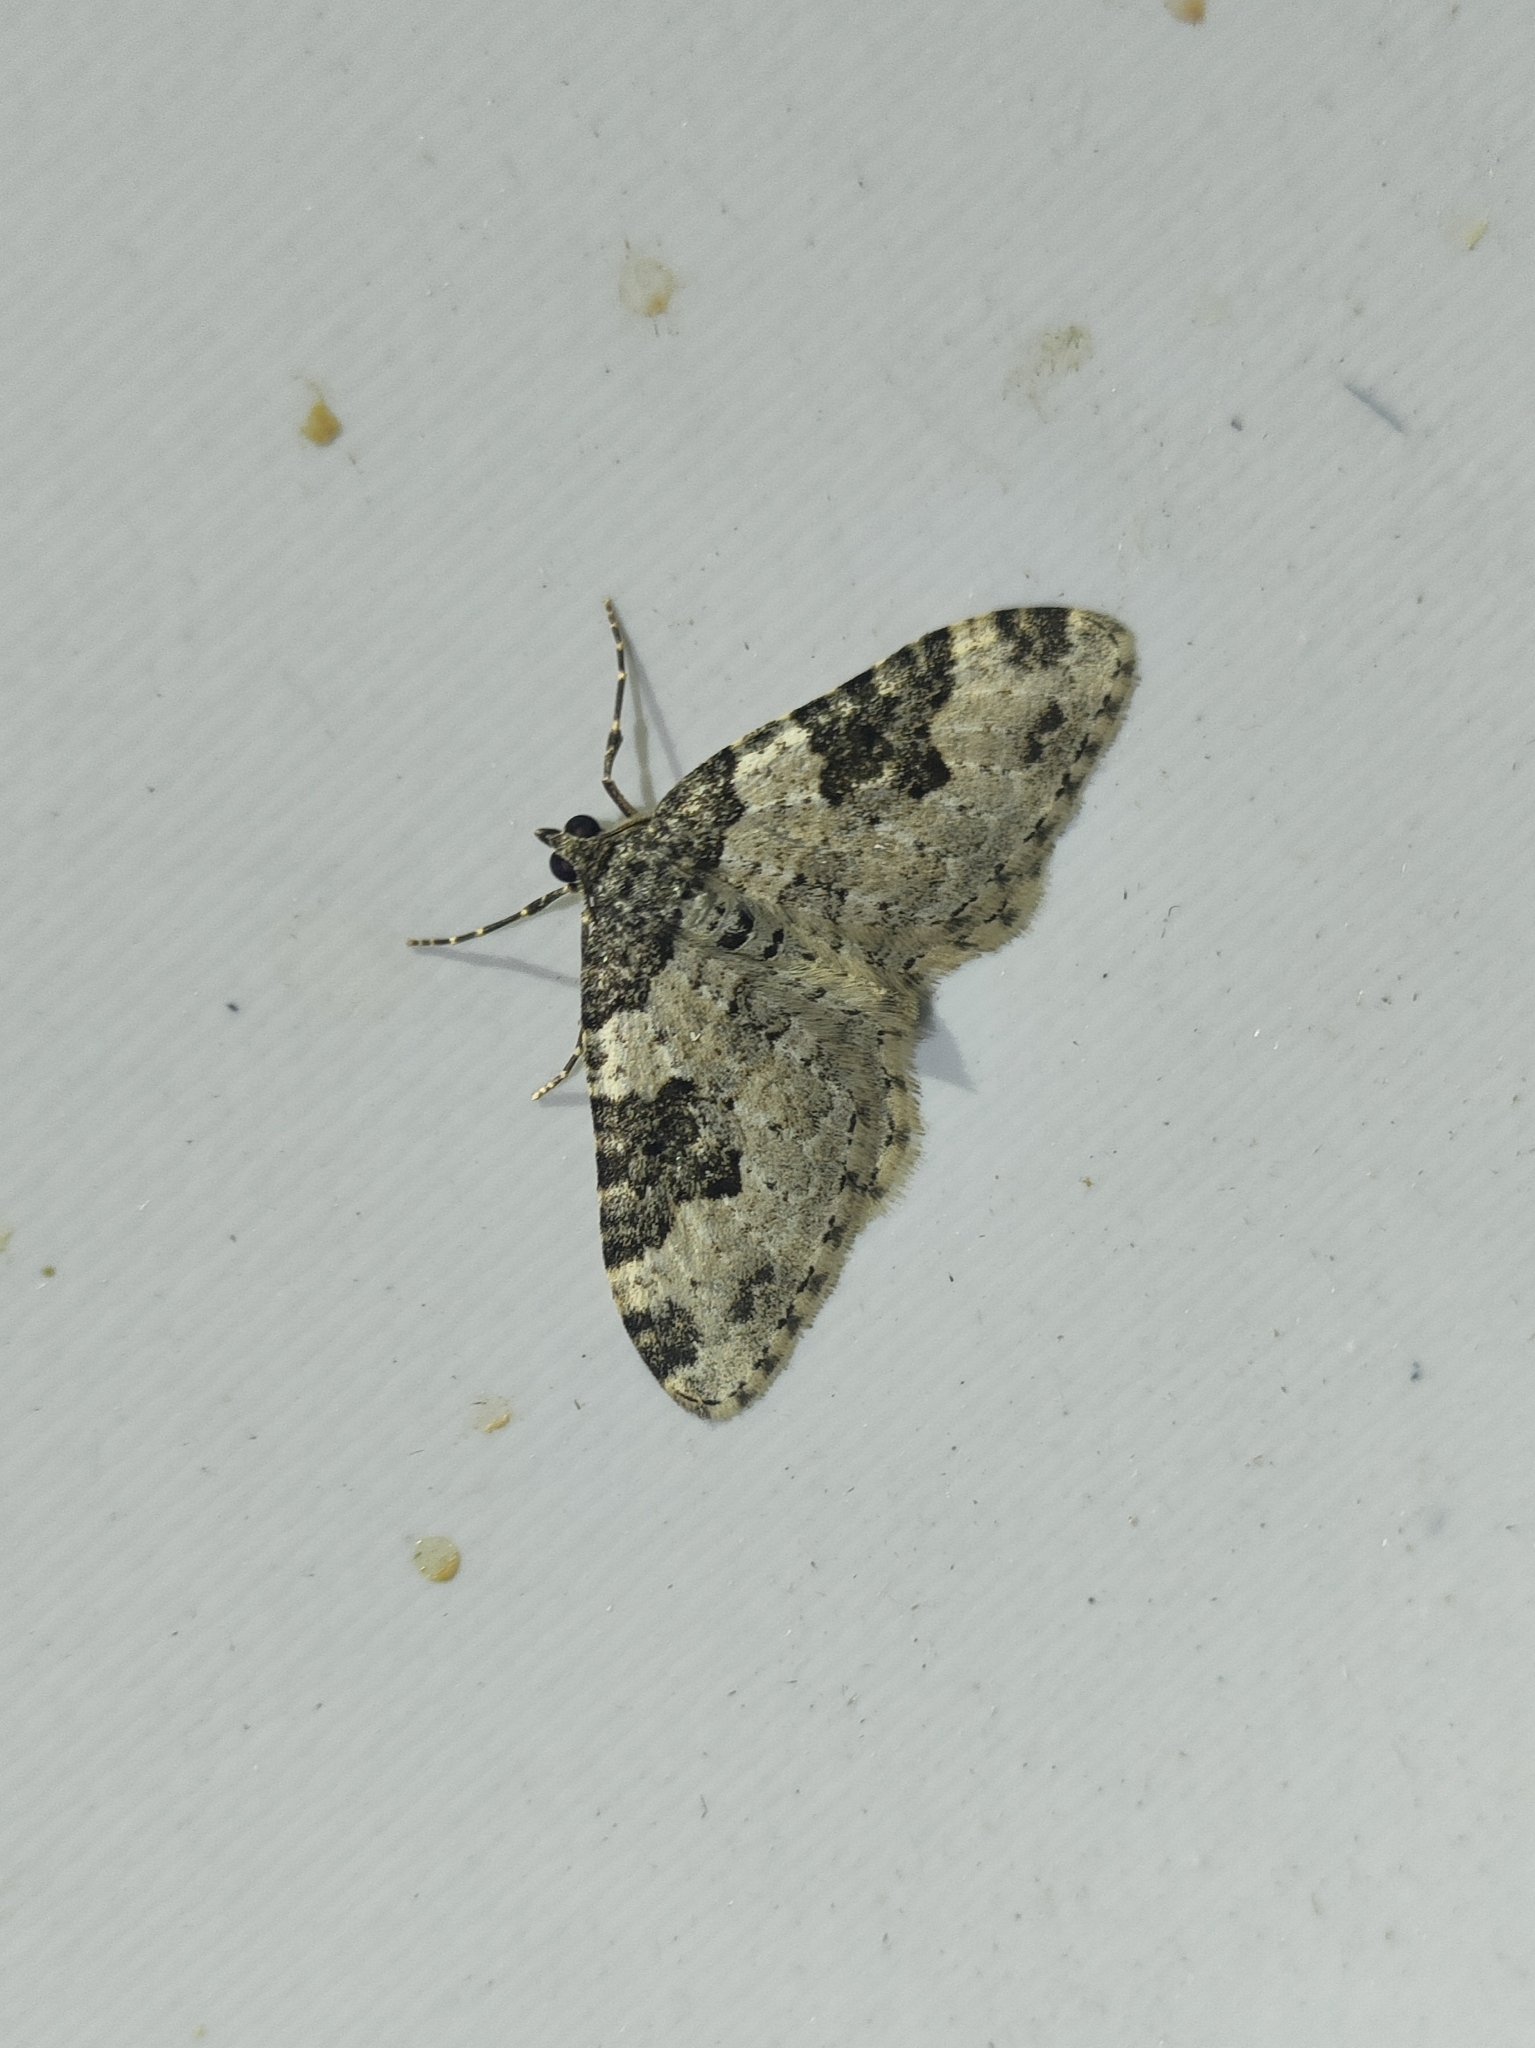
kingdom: Animalia
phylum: Arthropoda
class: Insecta
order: Lepidoptera
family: Geometridae
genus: Xanthorhoe
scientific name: Xanthorhoe fluctuata
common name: Garden carpet
